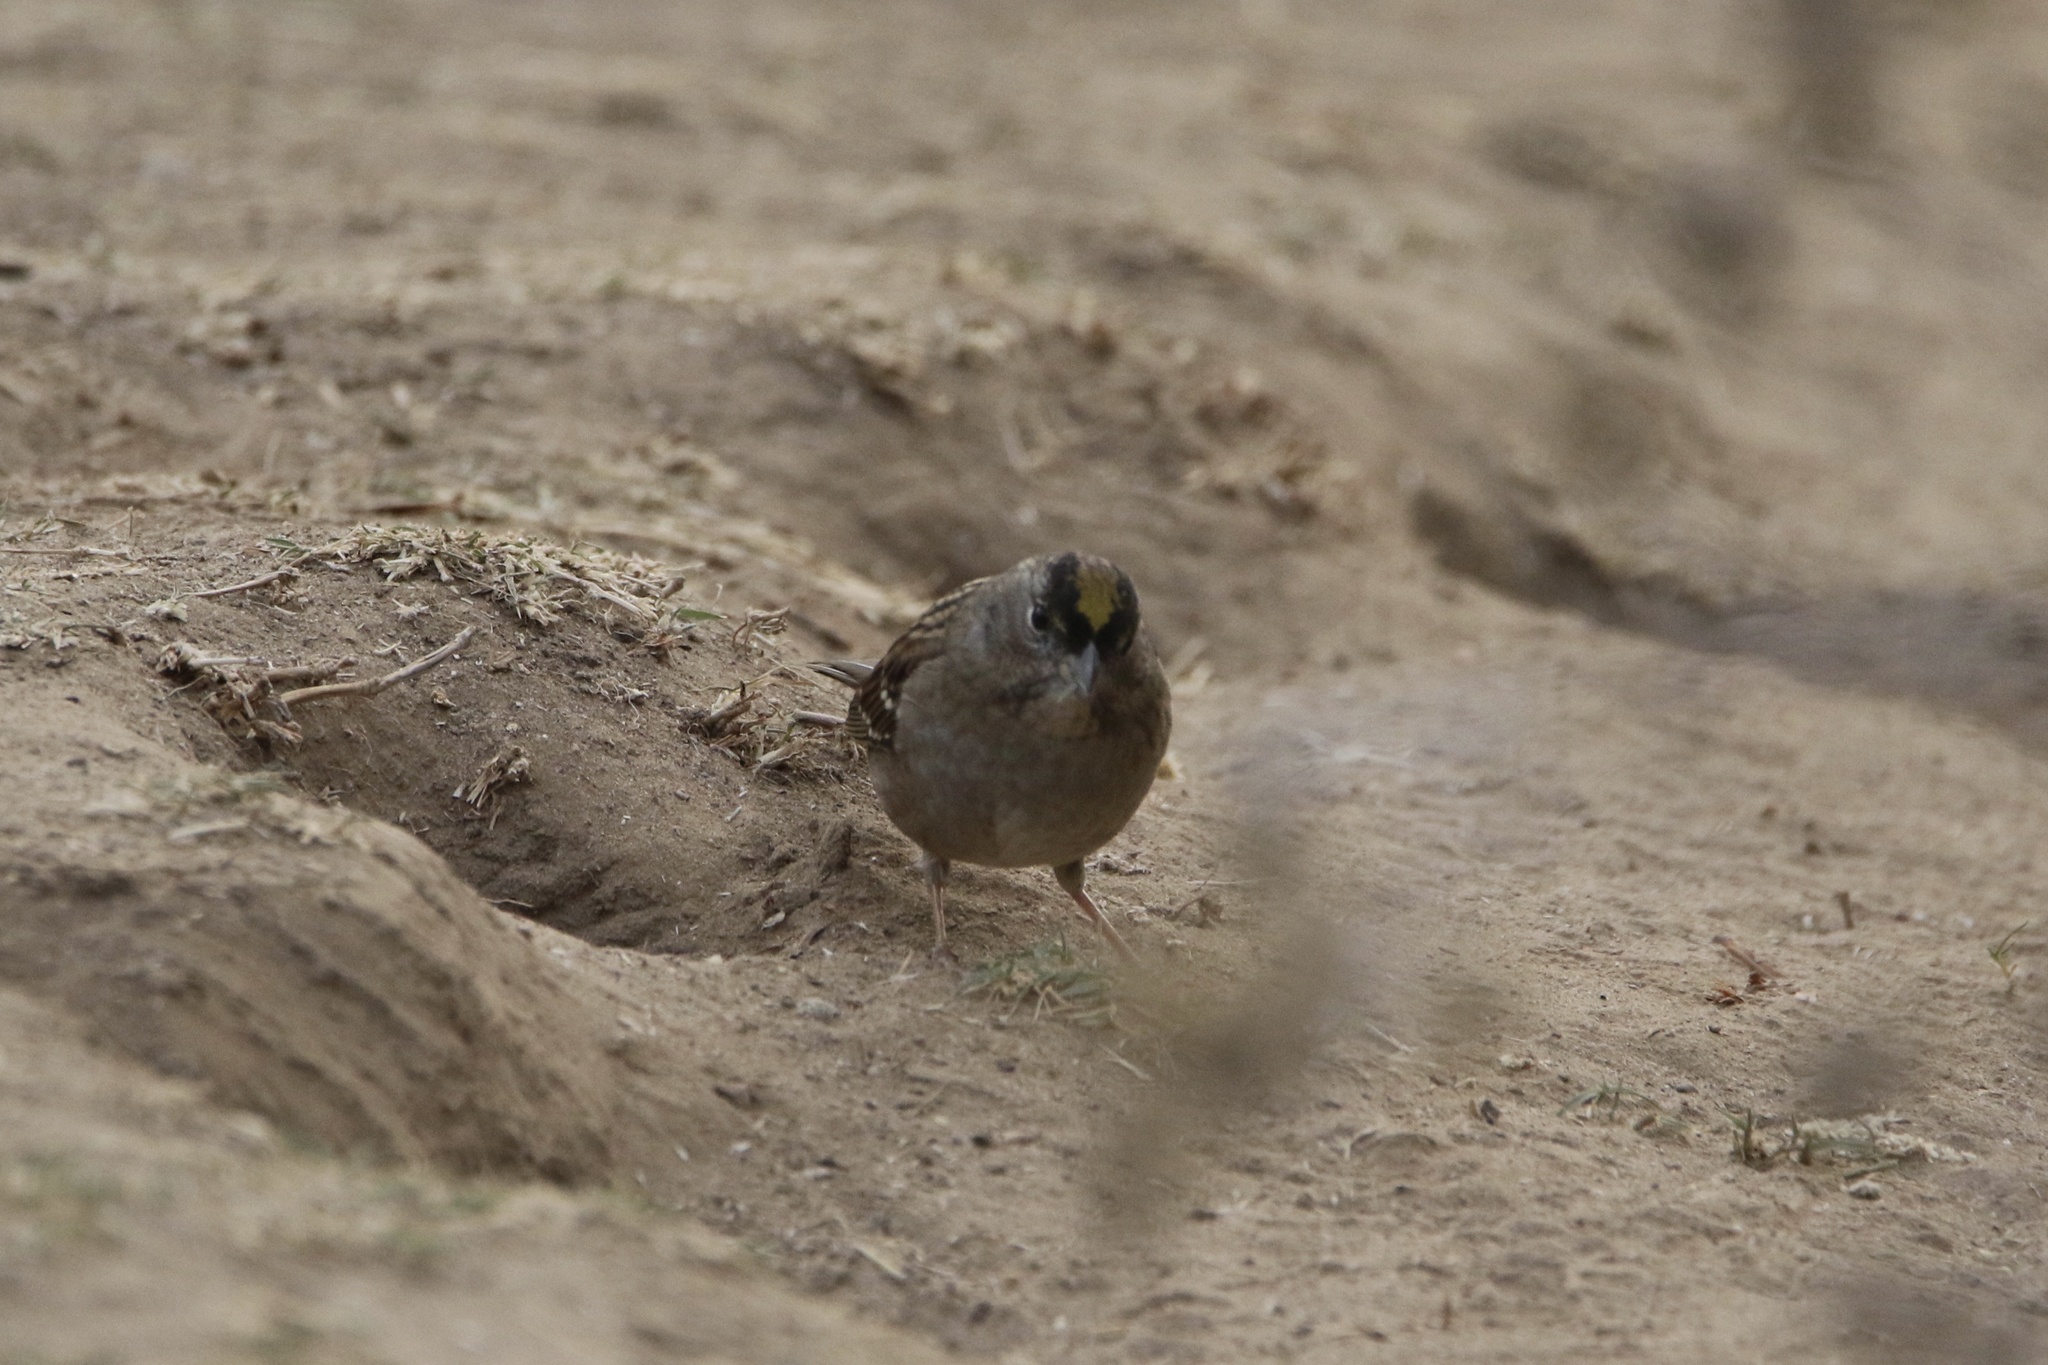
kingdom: Animalia
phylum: Chordata
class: Aves
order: Passeriformes
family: Passerellidae
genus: Zonotrichia
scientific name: Zonotrichia atricapilla
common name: Golden-crowned sparrow
